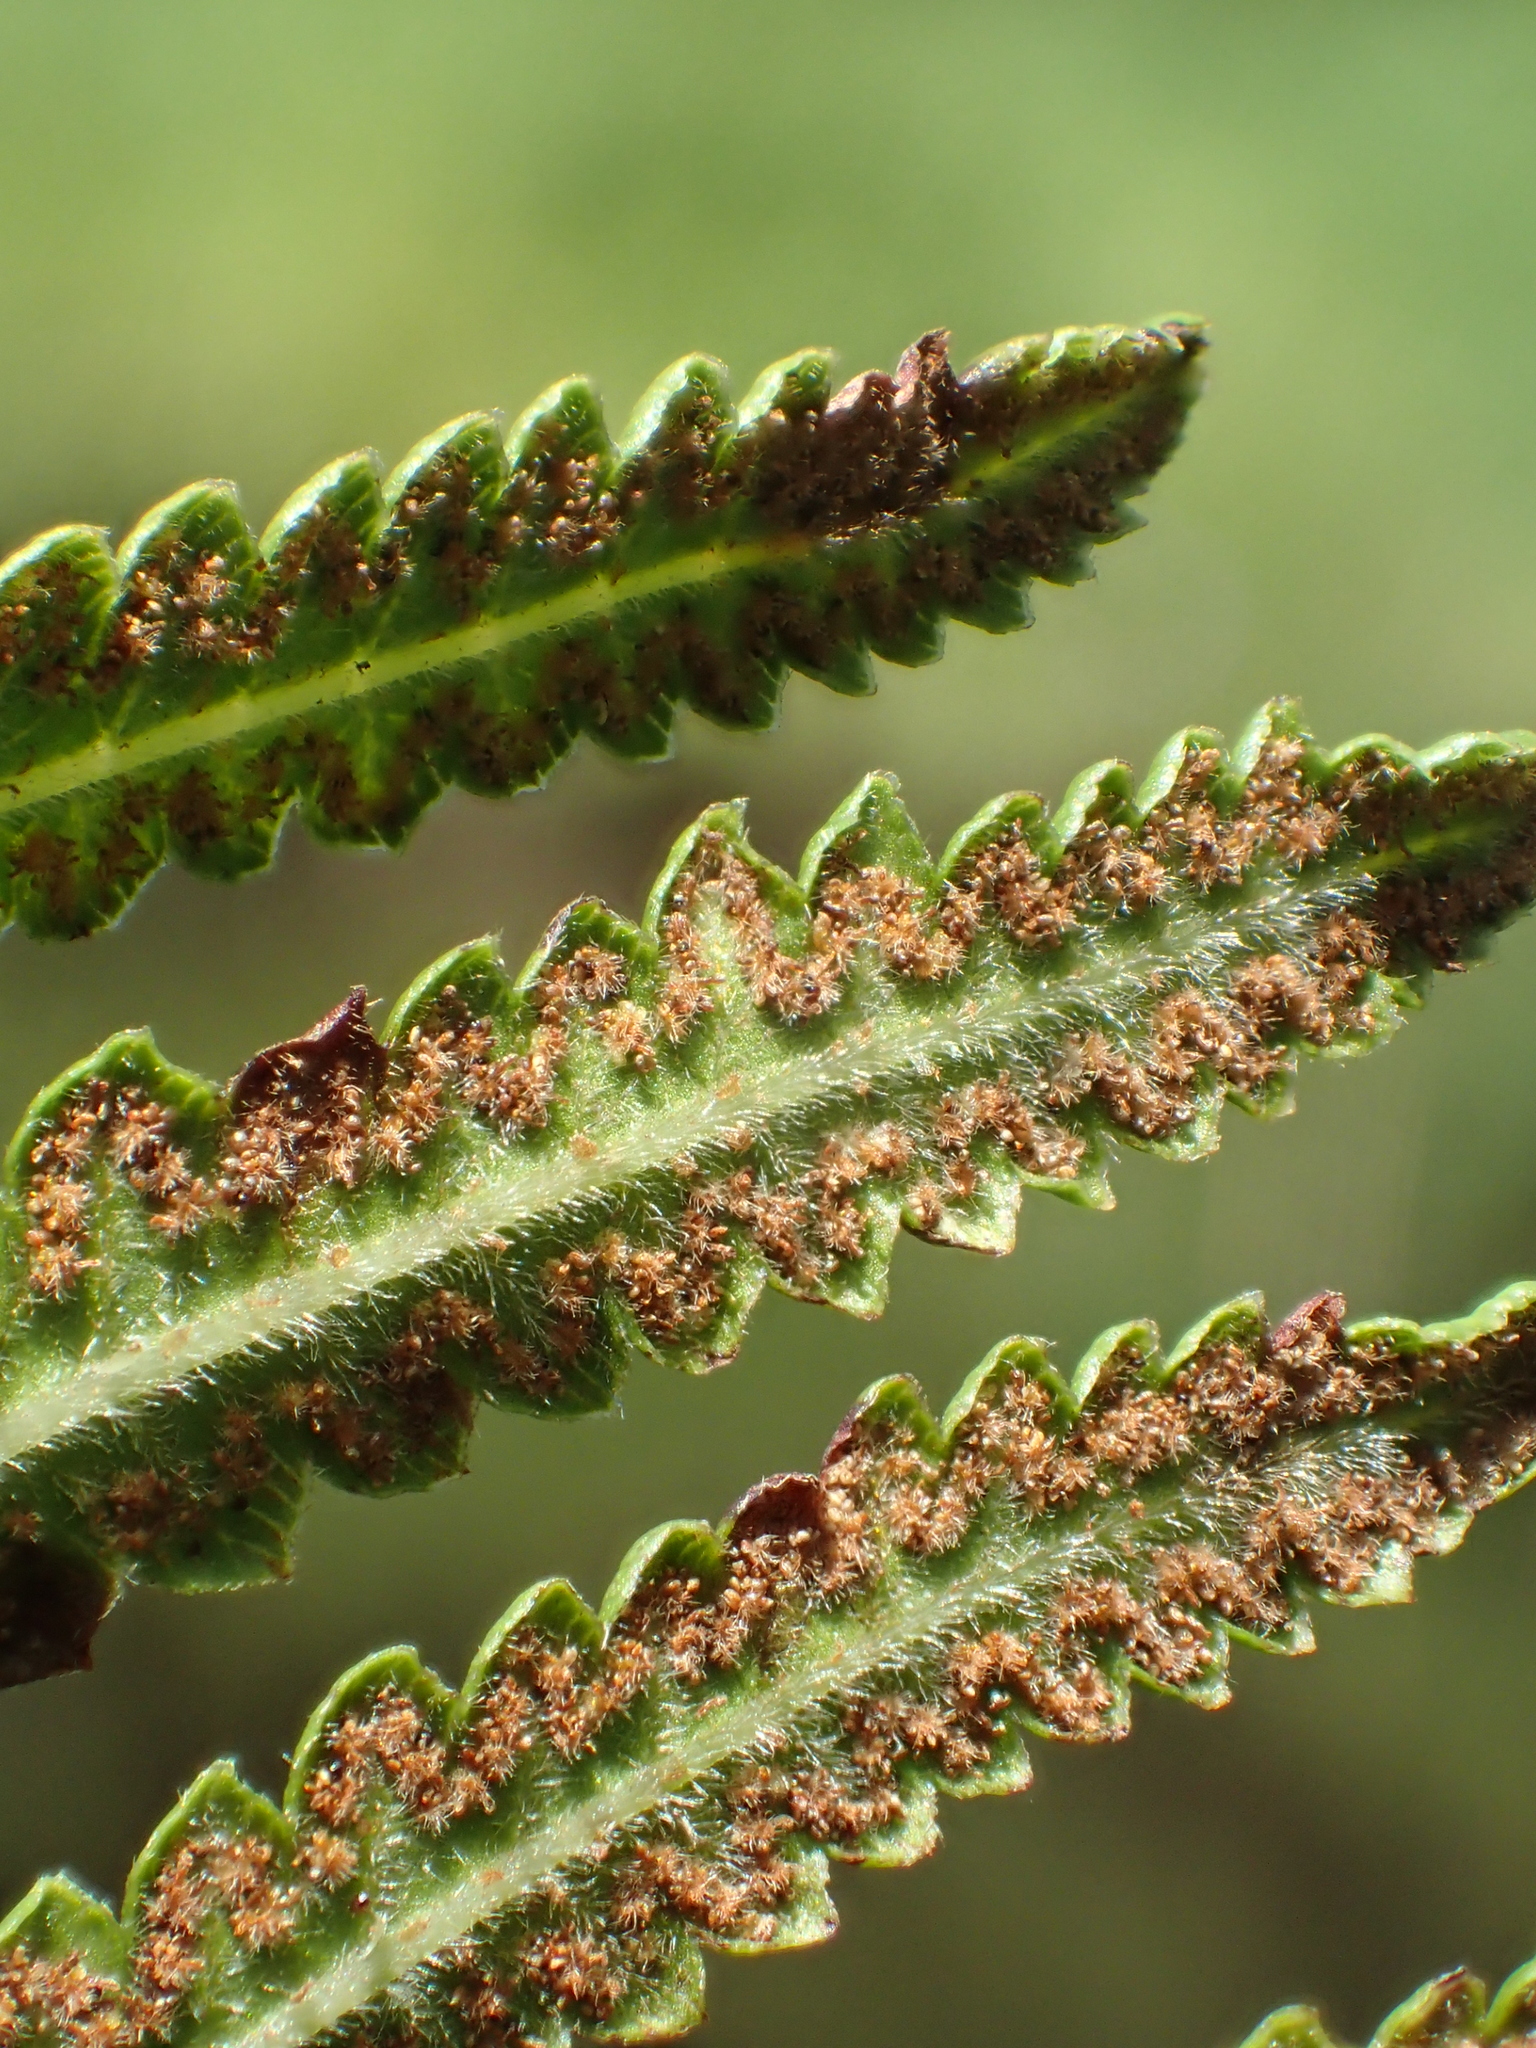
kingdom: Plantae
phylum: Tracheophyta
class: Polypodiopsida
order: Polypodiales
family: Thelypteridaceae
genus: Cyclosorus
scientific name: Cyclosorus interruptus
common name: Neke fern
